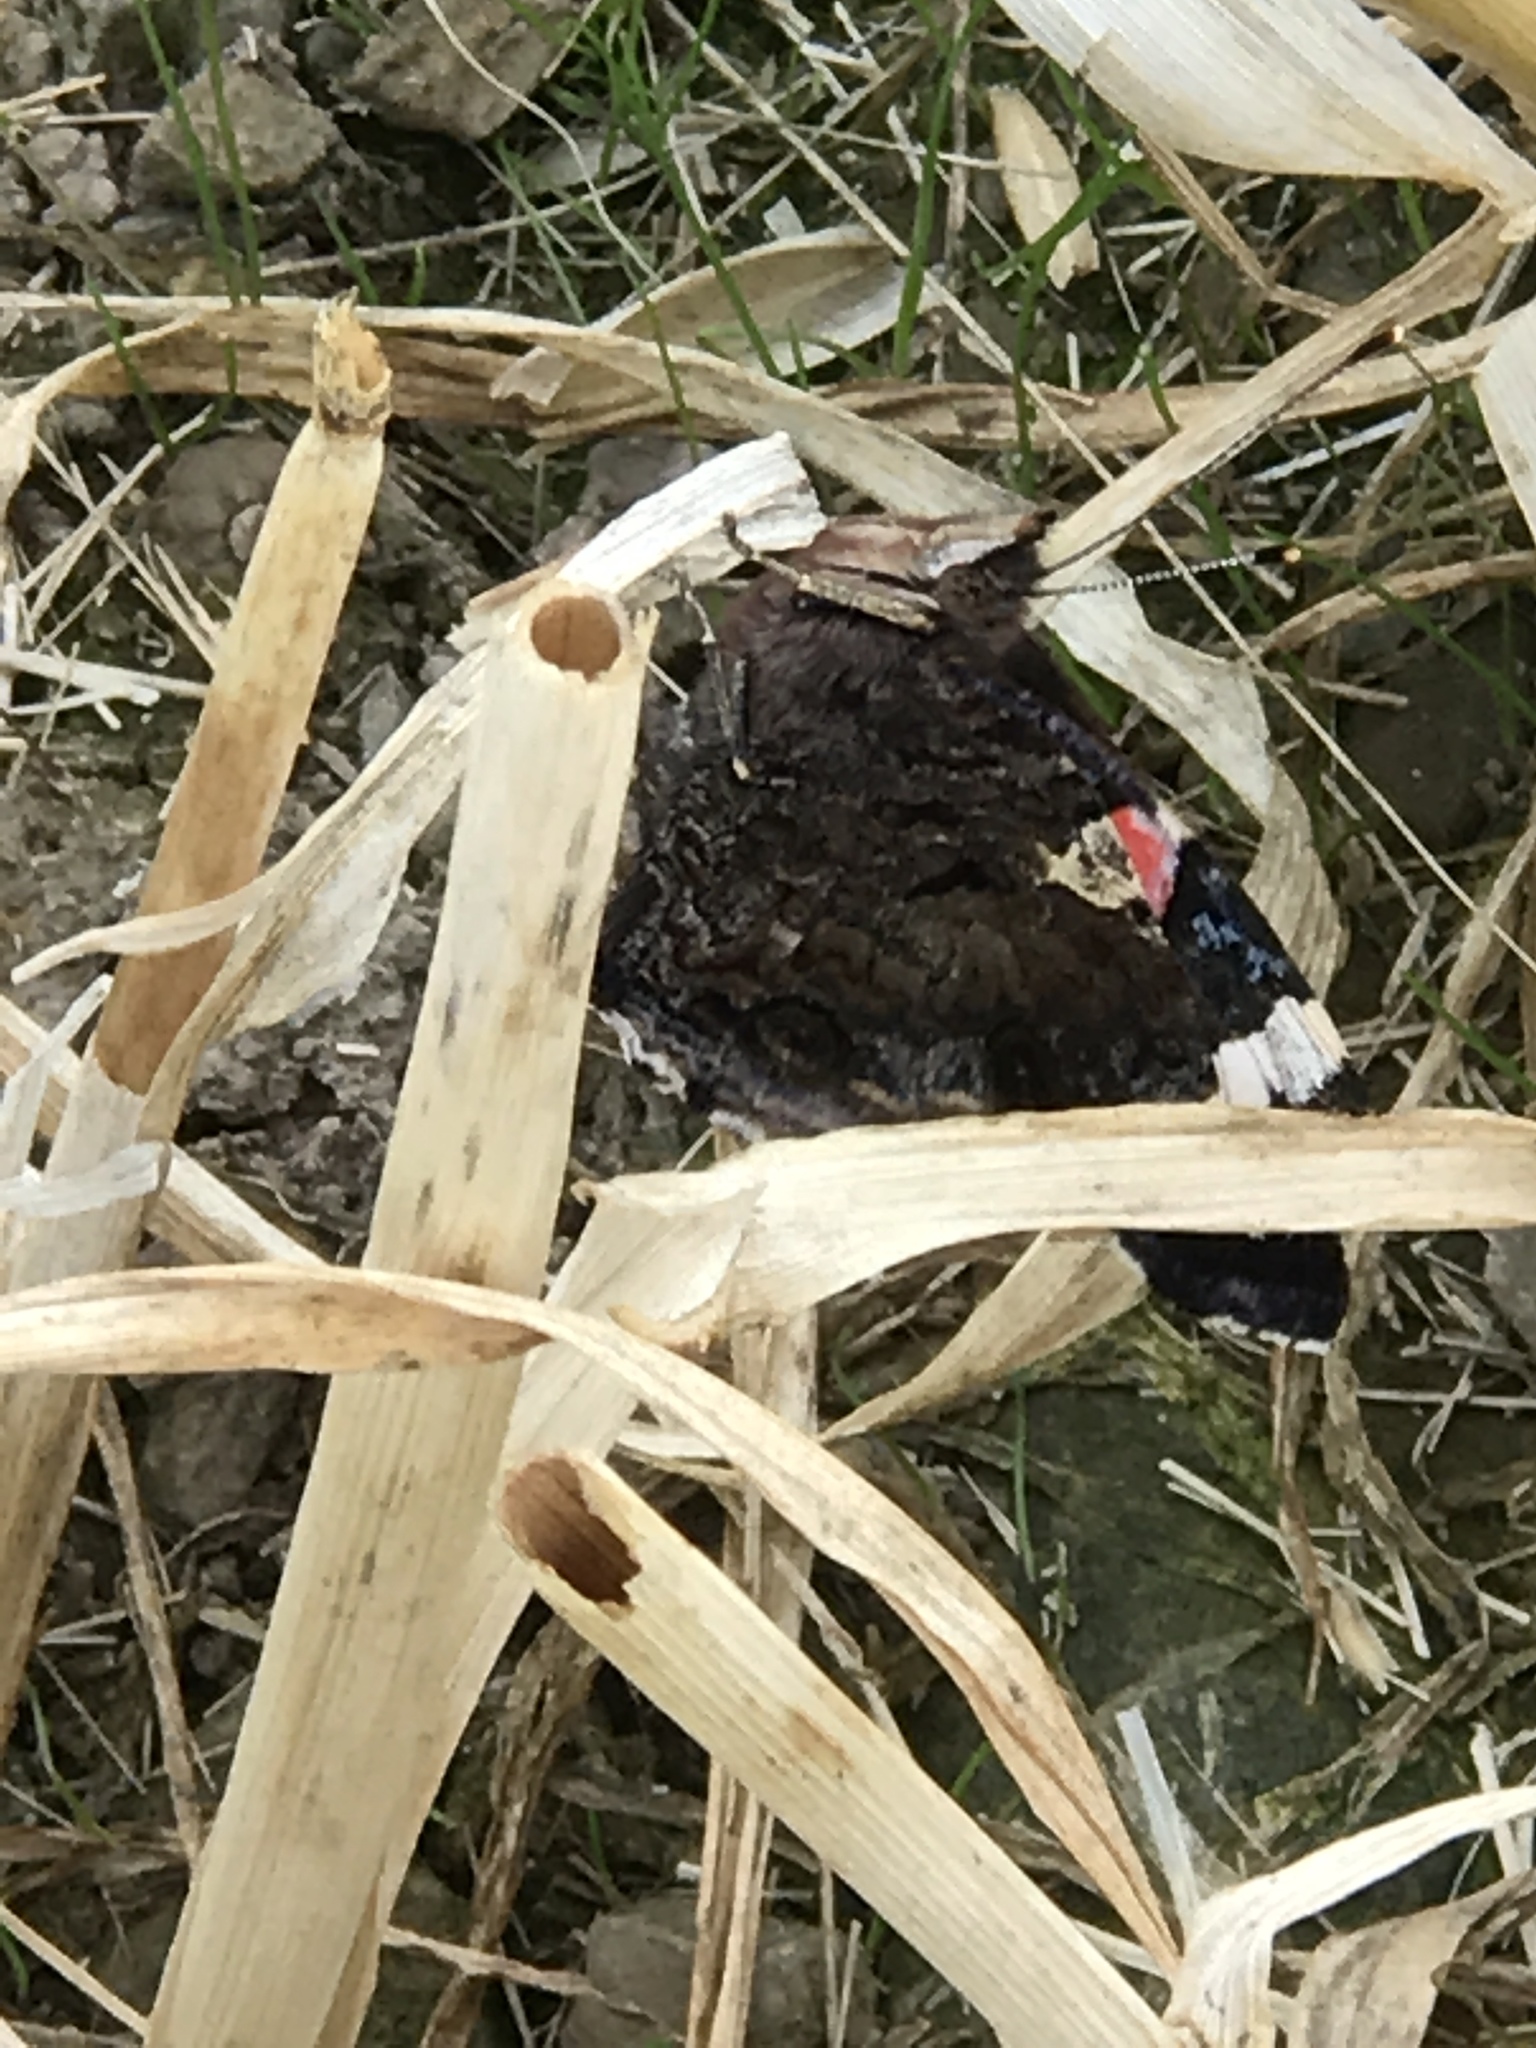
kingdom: Animalia
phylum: Arthropoda
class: Insecta
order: Lepidoptera
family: Nymphalidae
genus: Vanessa
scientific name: Vanessa atalanta
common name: Red admiral
